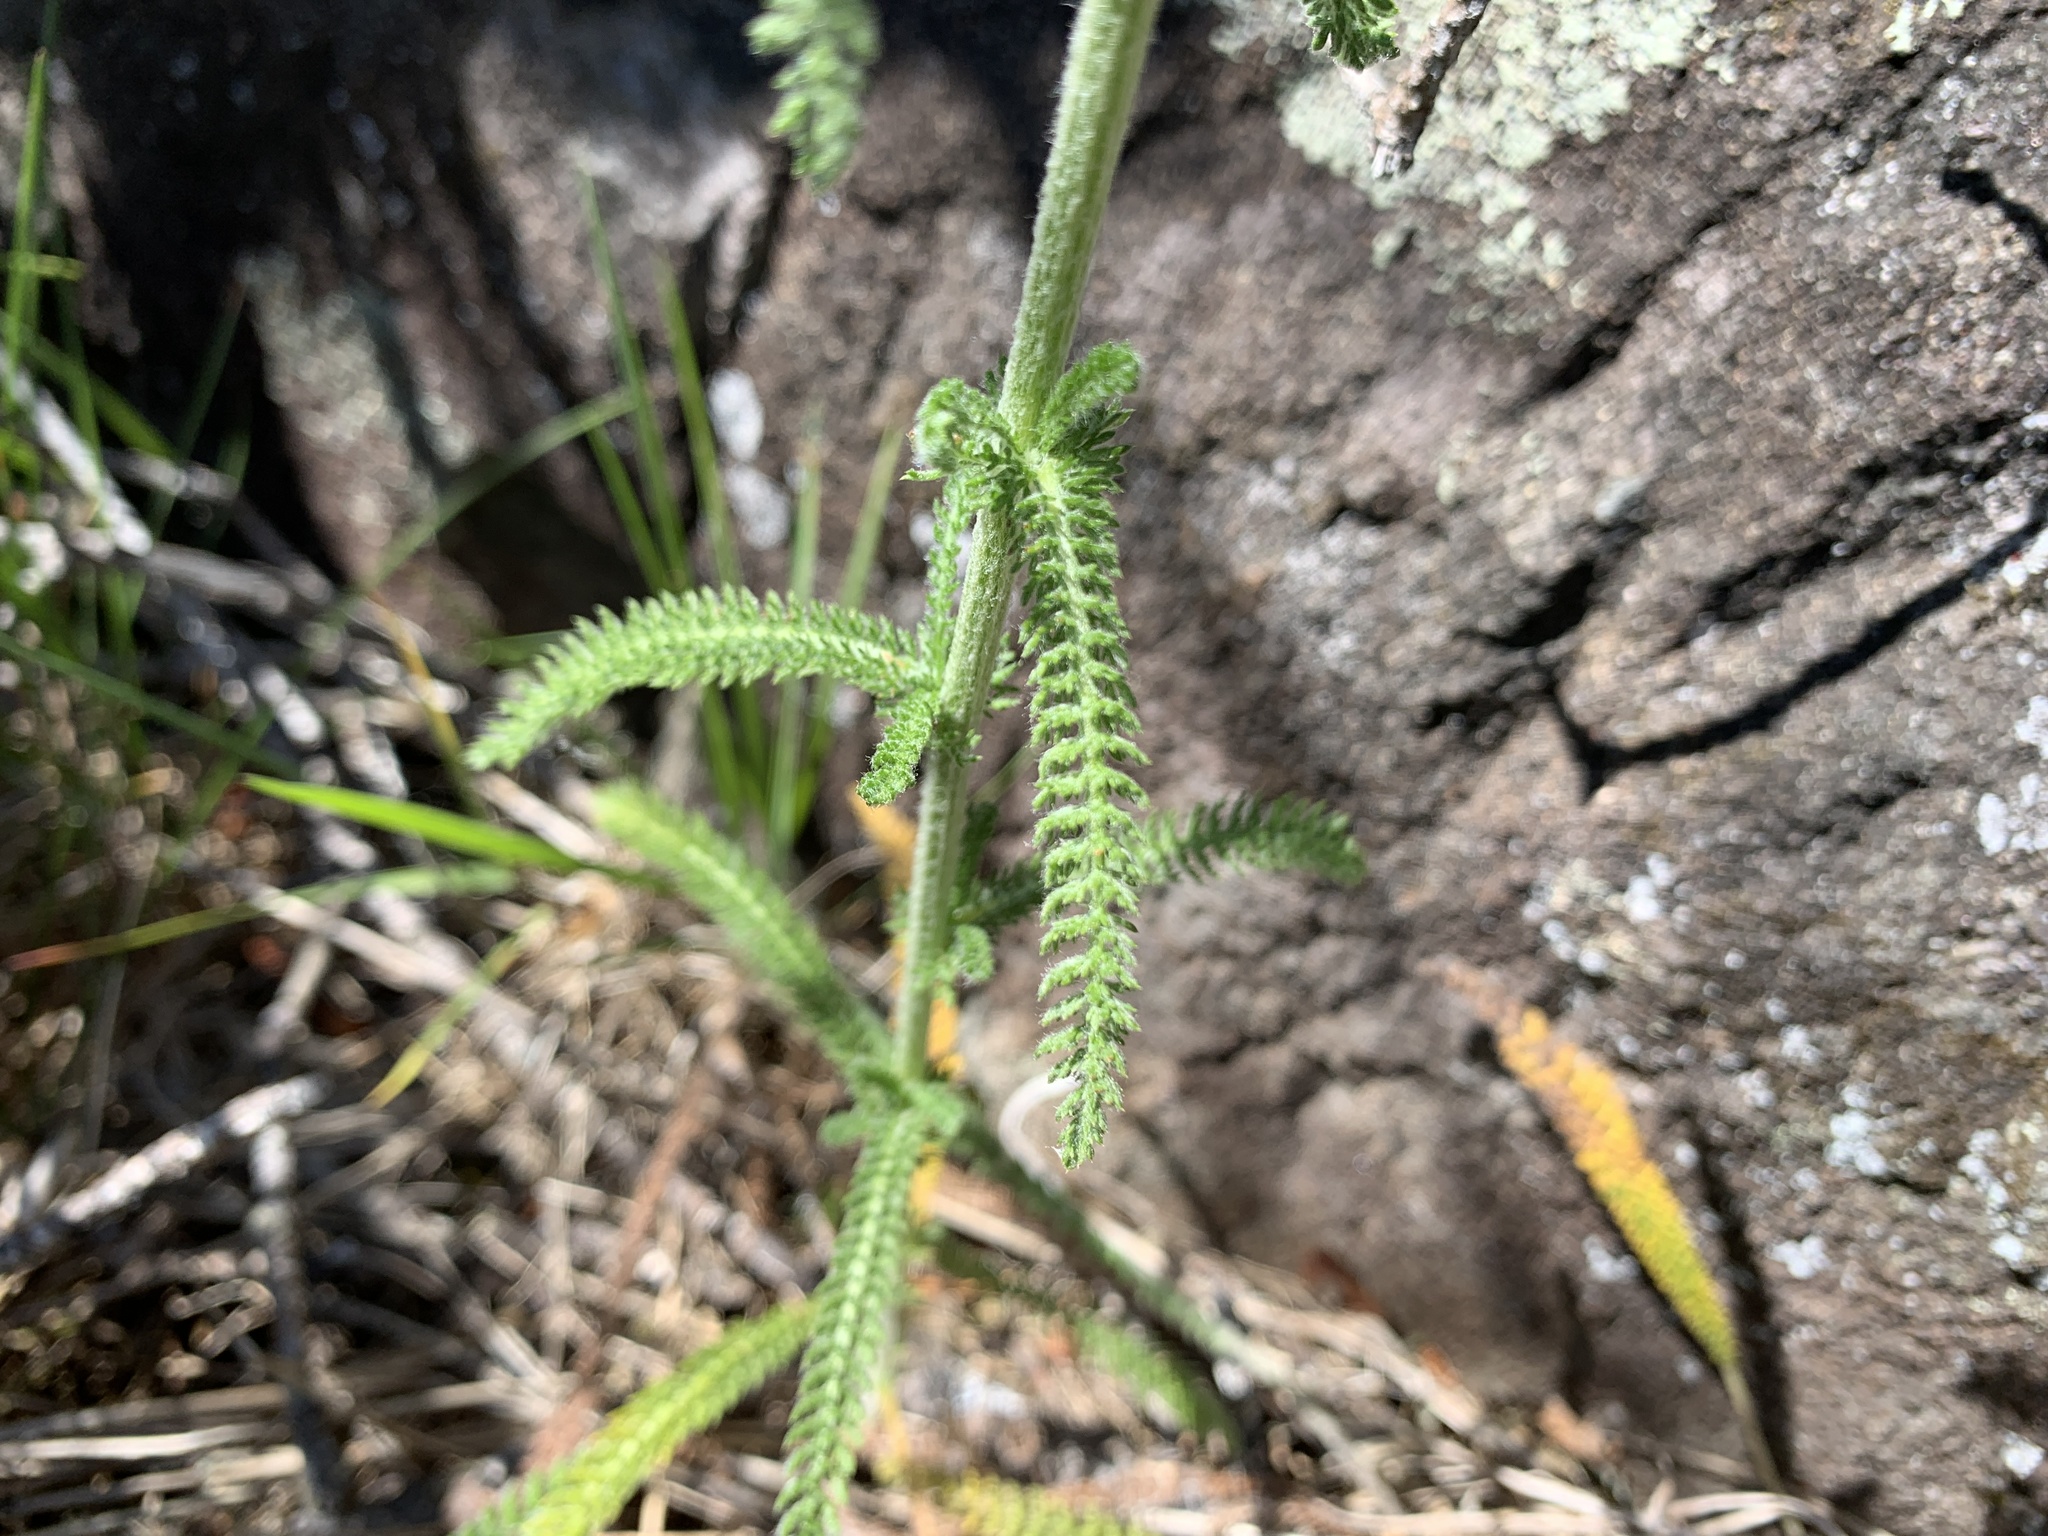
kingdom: Plantae
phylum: Tracheophyta
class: Magnoliopsida
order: Asterales
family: Asteraceae
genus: Achillea
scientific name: Achillea millefolium
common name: Yarrow
